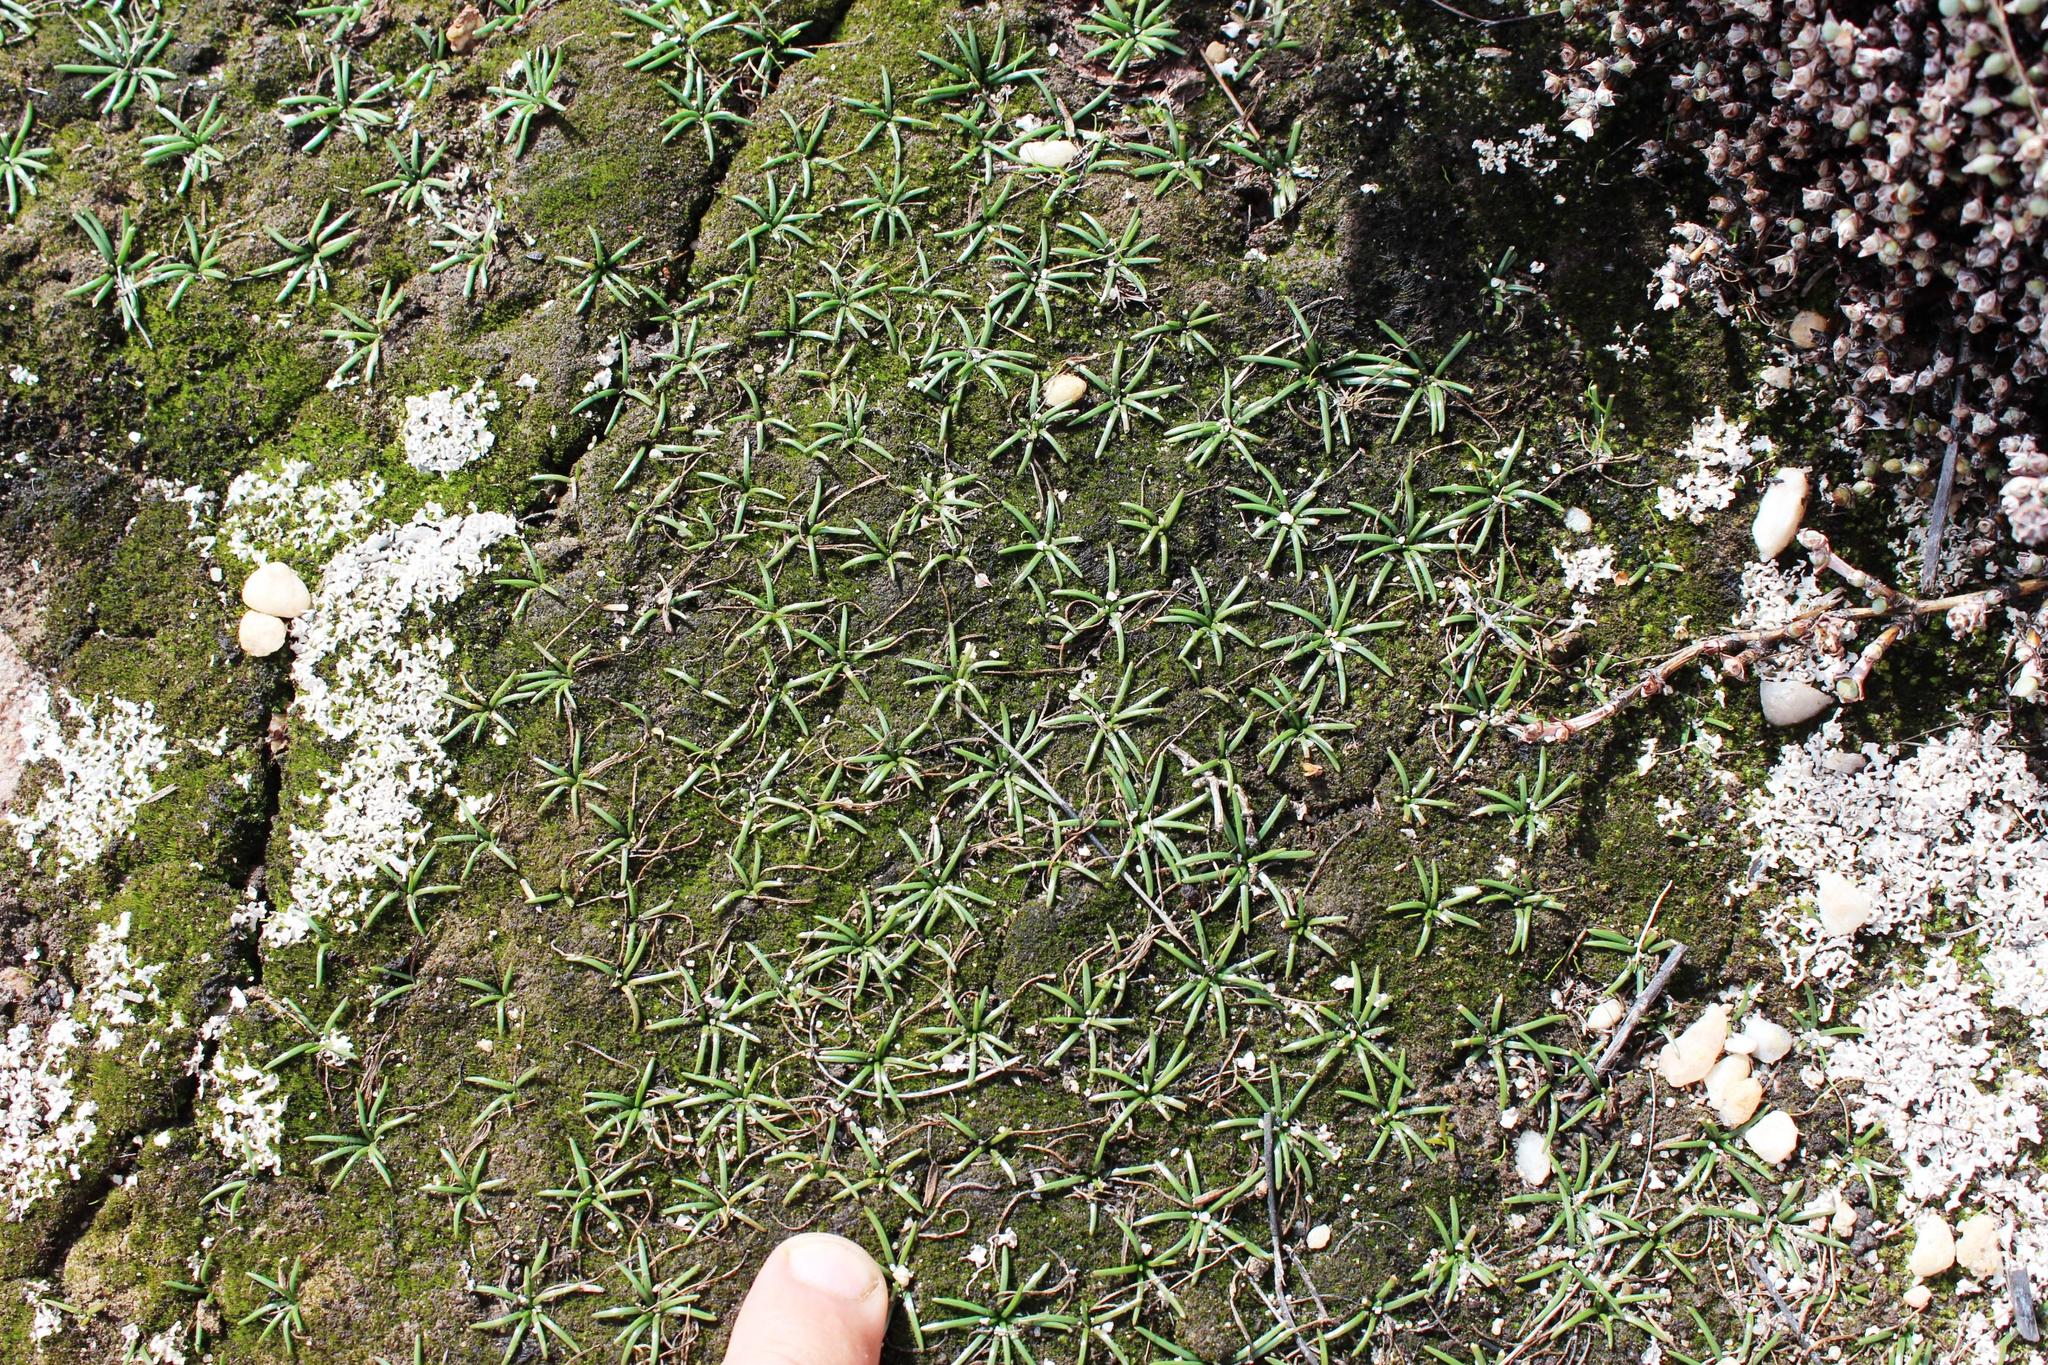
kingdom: Plantae
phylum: Tracheophyta
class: Liliopsida
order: Asparagales
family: Asparagaceae
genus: Drimia
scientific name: Drimia convallarioides
